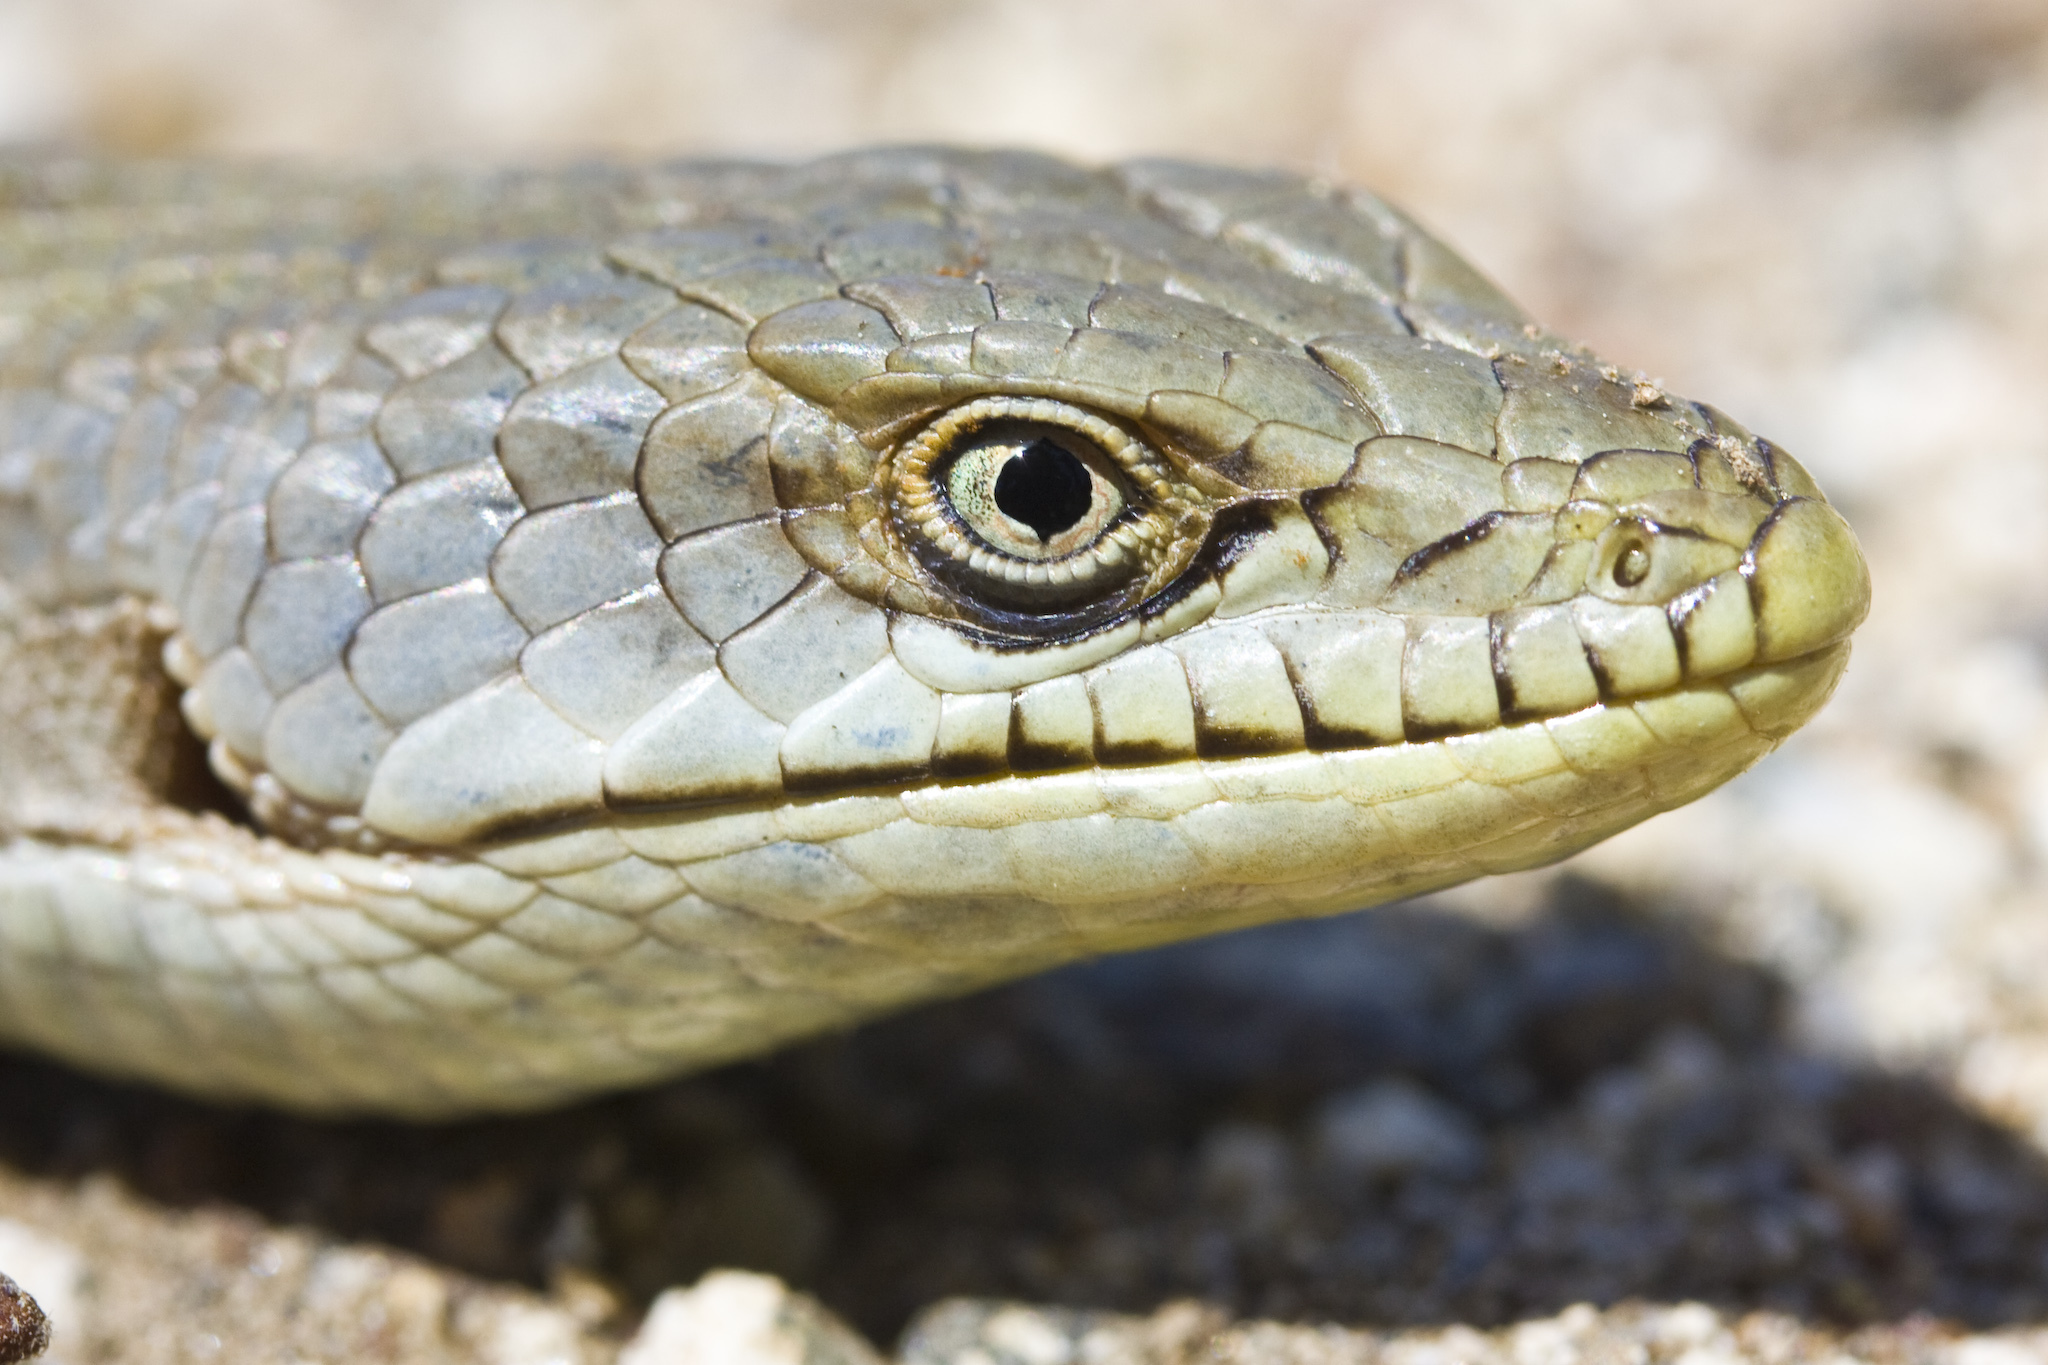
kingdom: Animalia
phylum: Chordata
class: Squamata
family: Anguidae
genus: Elgaria
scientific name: Elgaria multicarinata
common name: Southern alligator lizard
